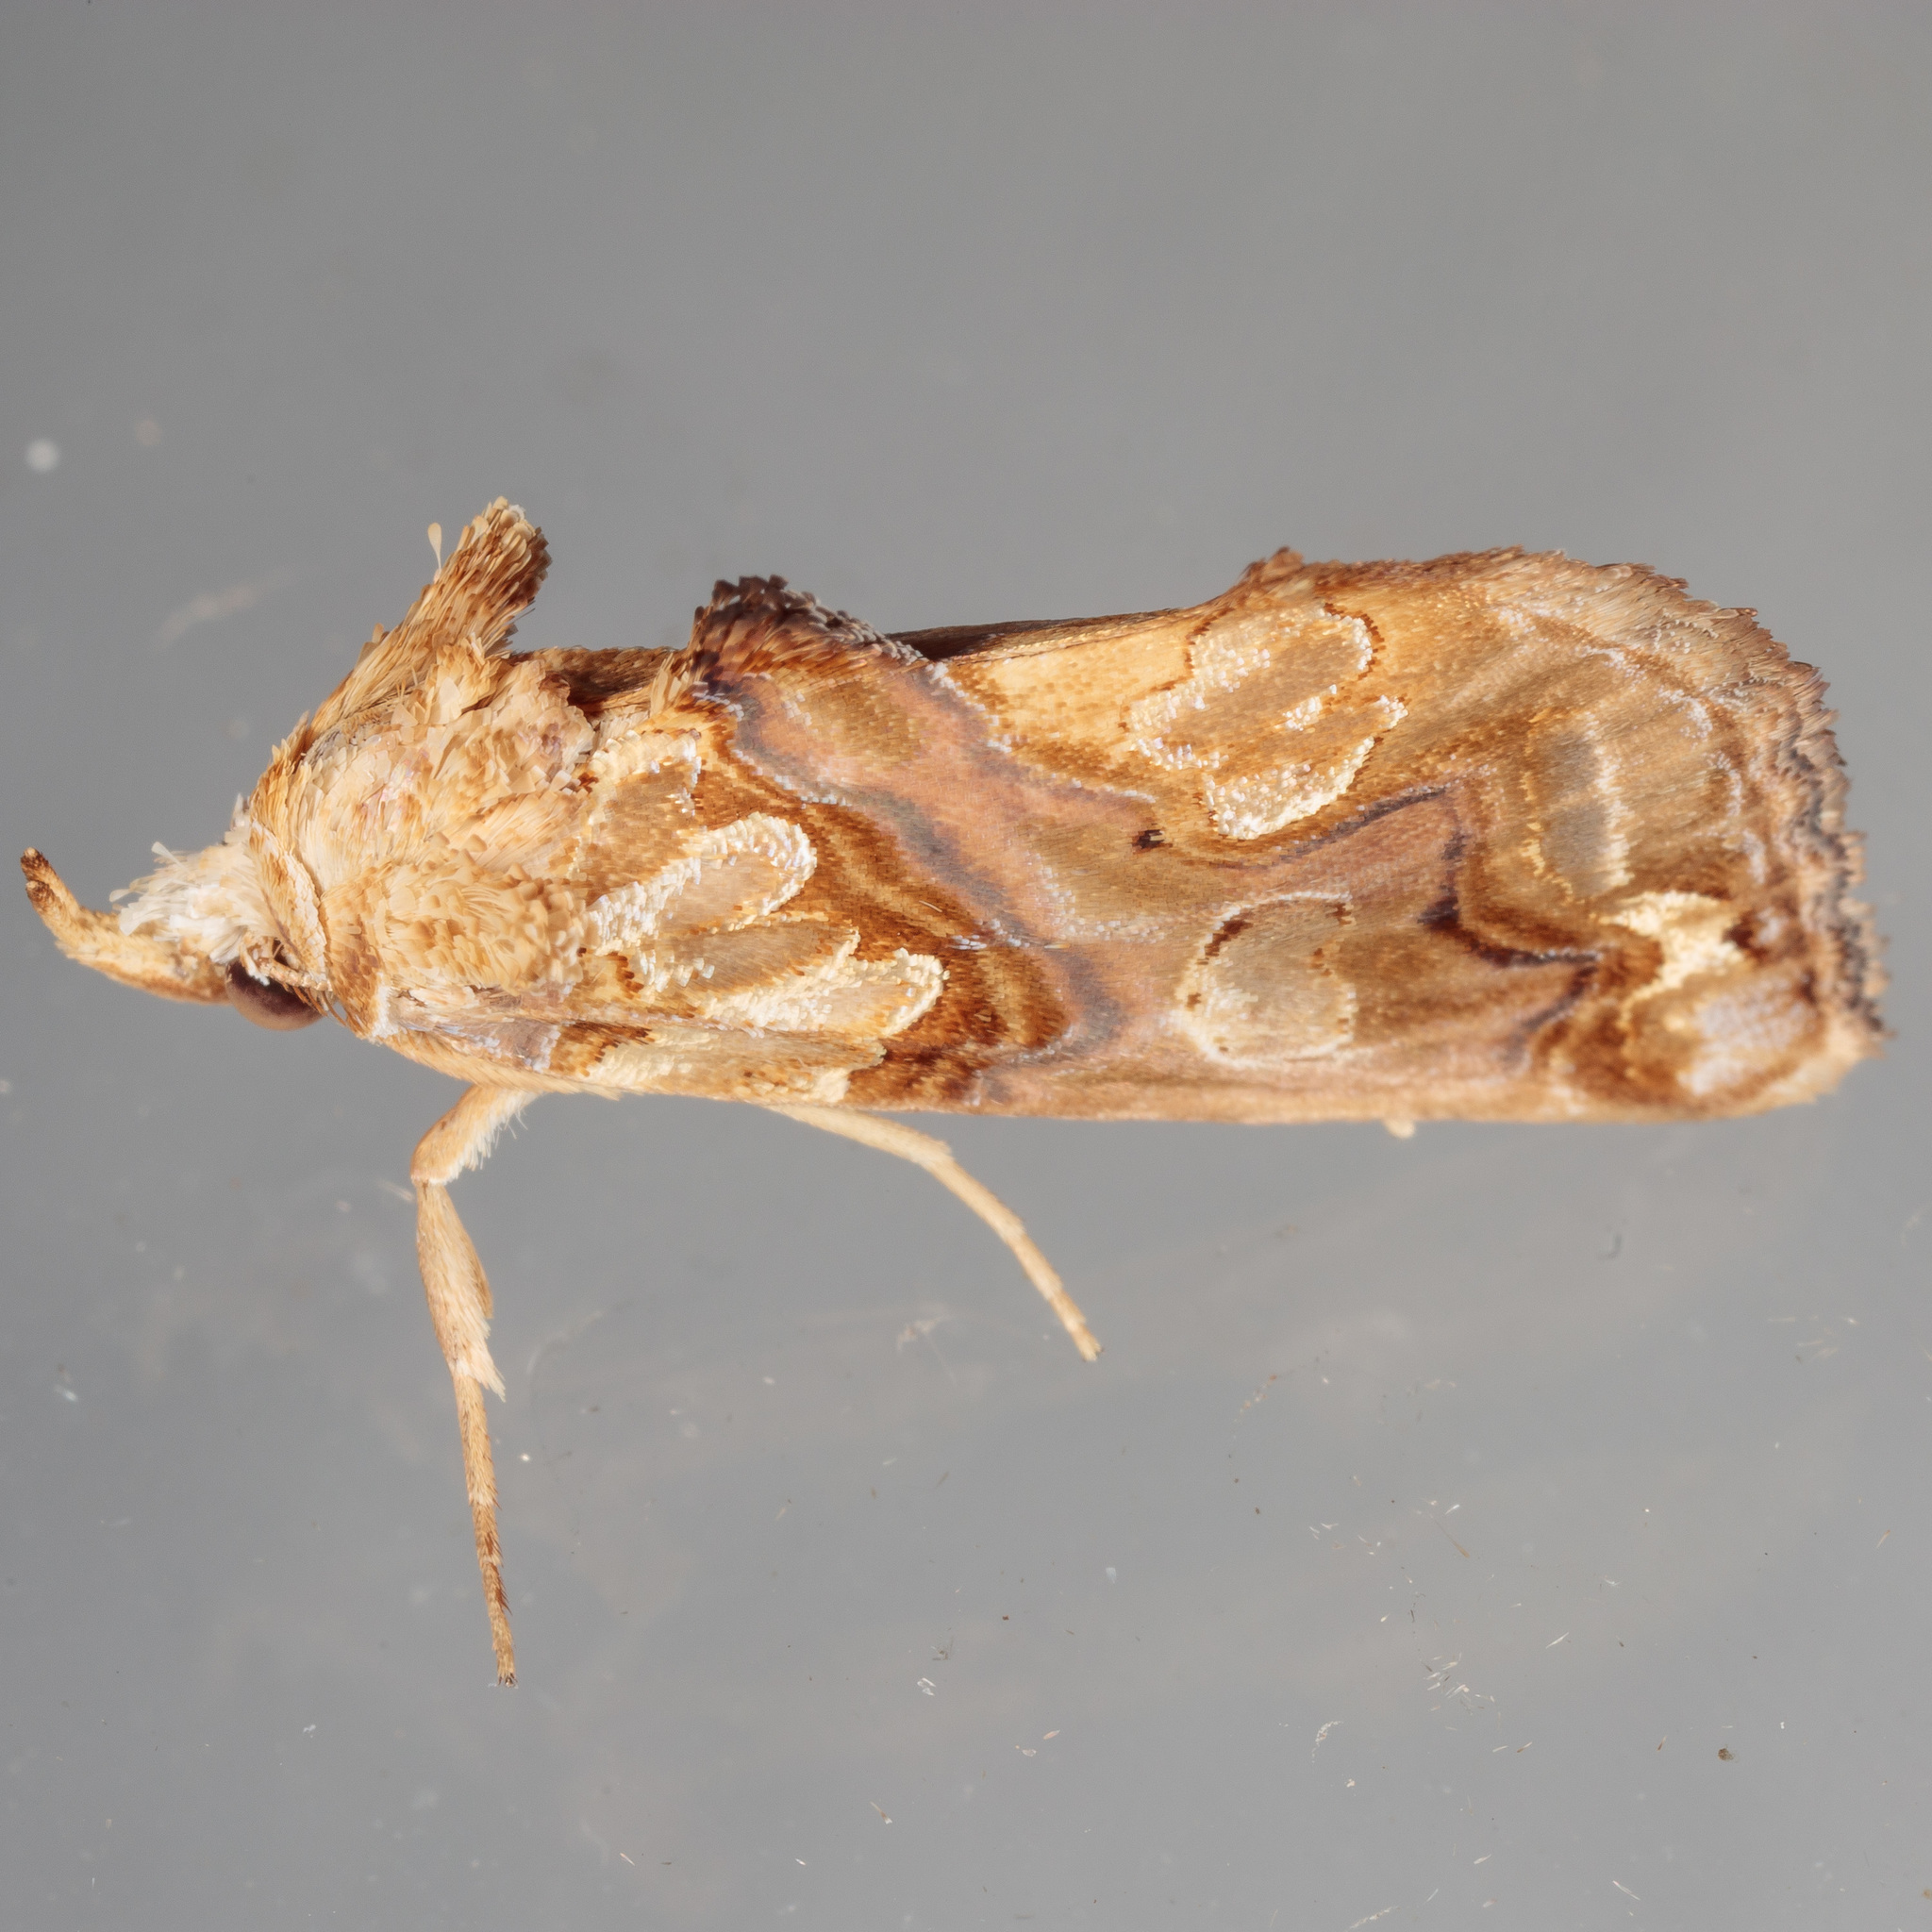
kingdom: Animalia
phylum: Arthropoda
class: Insecta
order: Lepidoptera
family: Erebidae
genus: Plusiodonta
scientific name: Plusiodonta compressipalpis
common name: Moonseed moth
